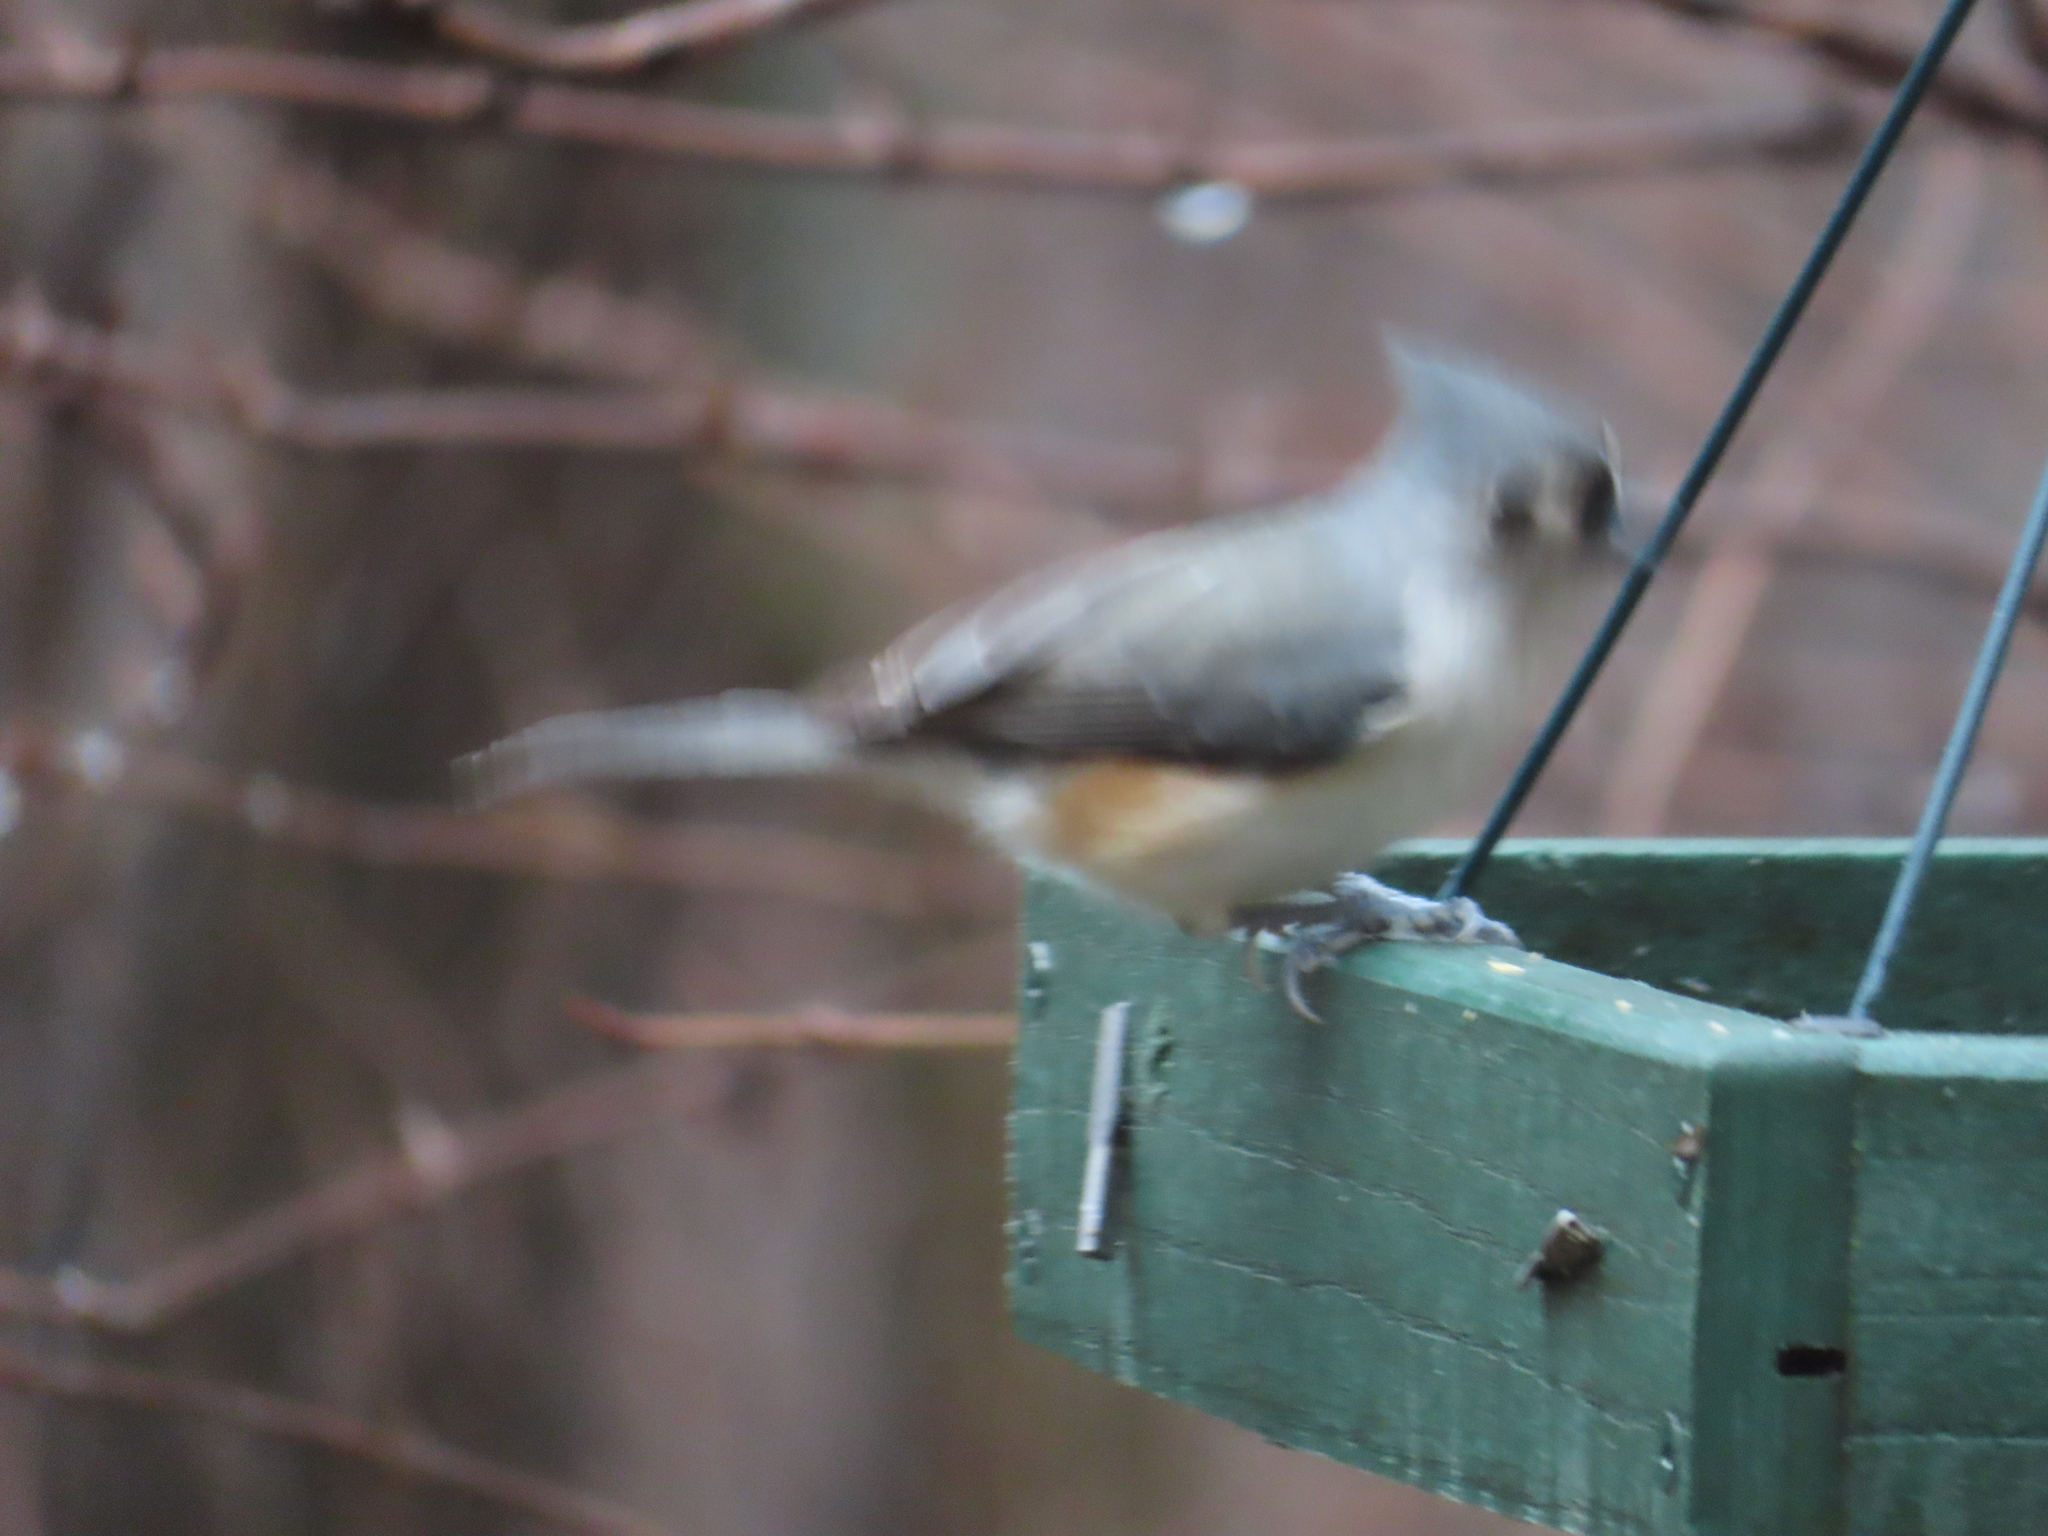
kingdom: Animalia
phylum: Chordata
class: Aves
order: Passeriformes
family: Paridae
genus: Baeolophus
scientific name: Baeolophus bicolor
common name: Tufted titmouse
